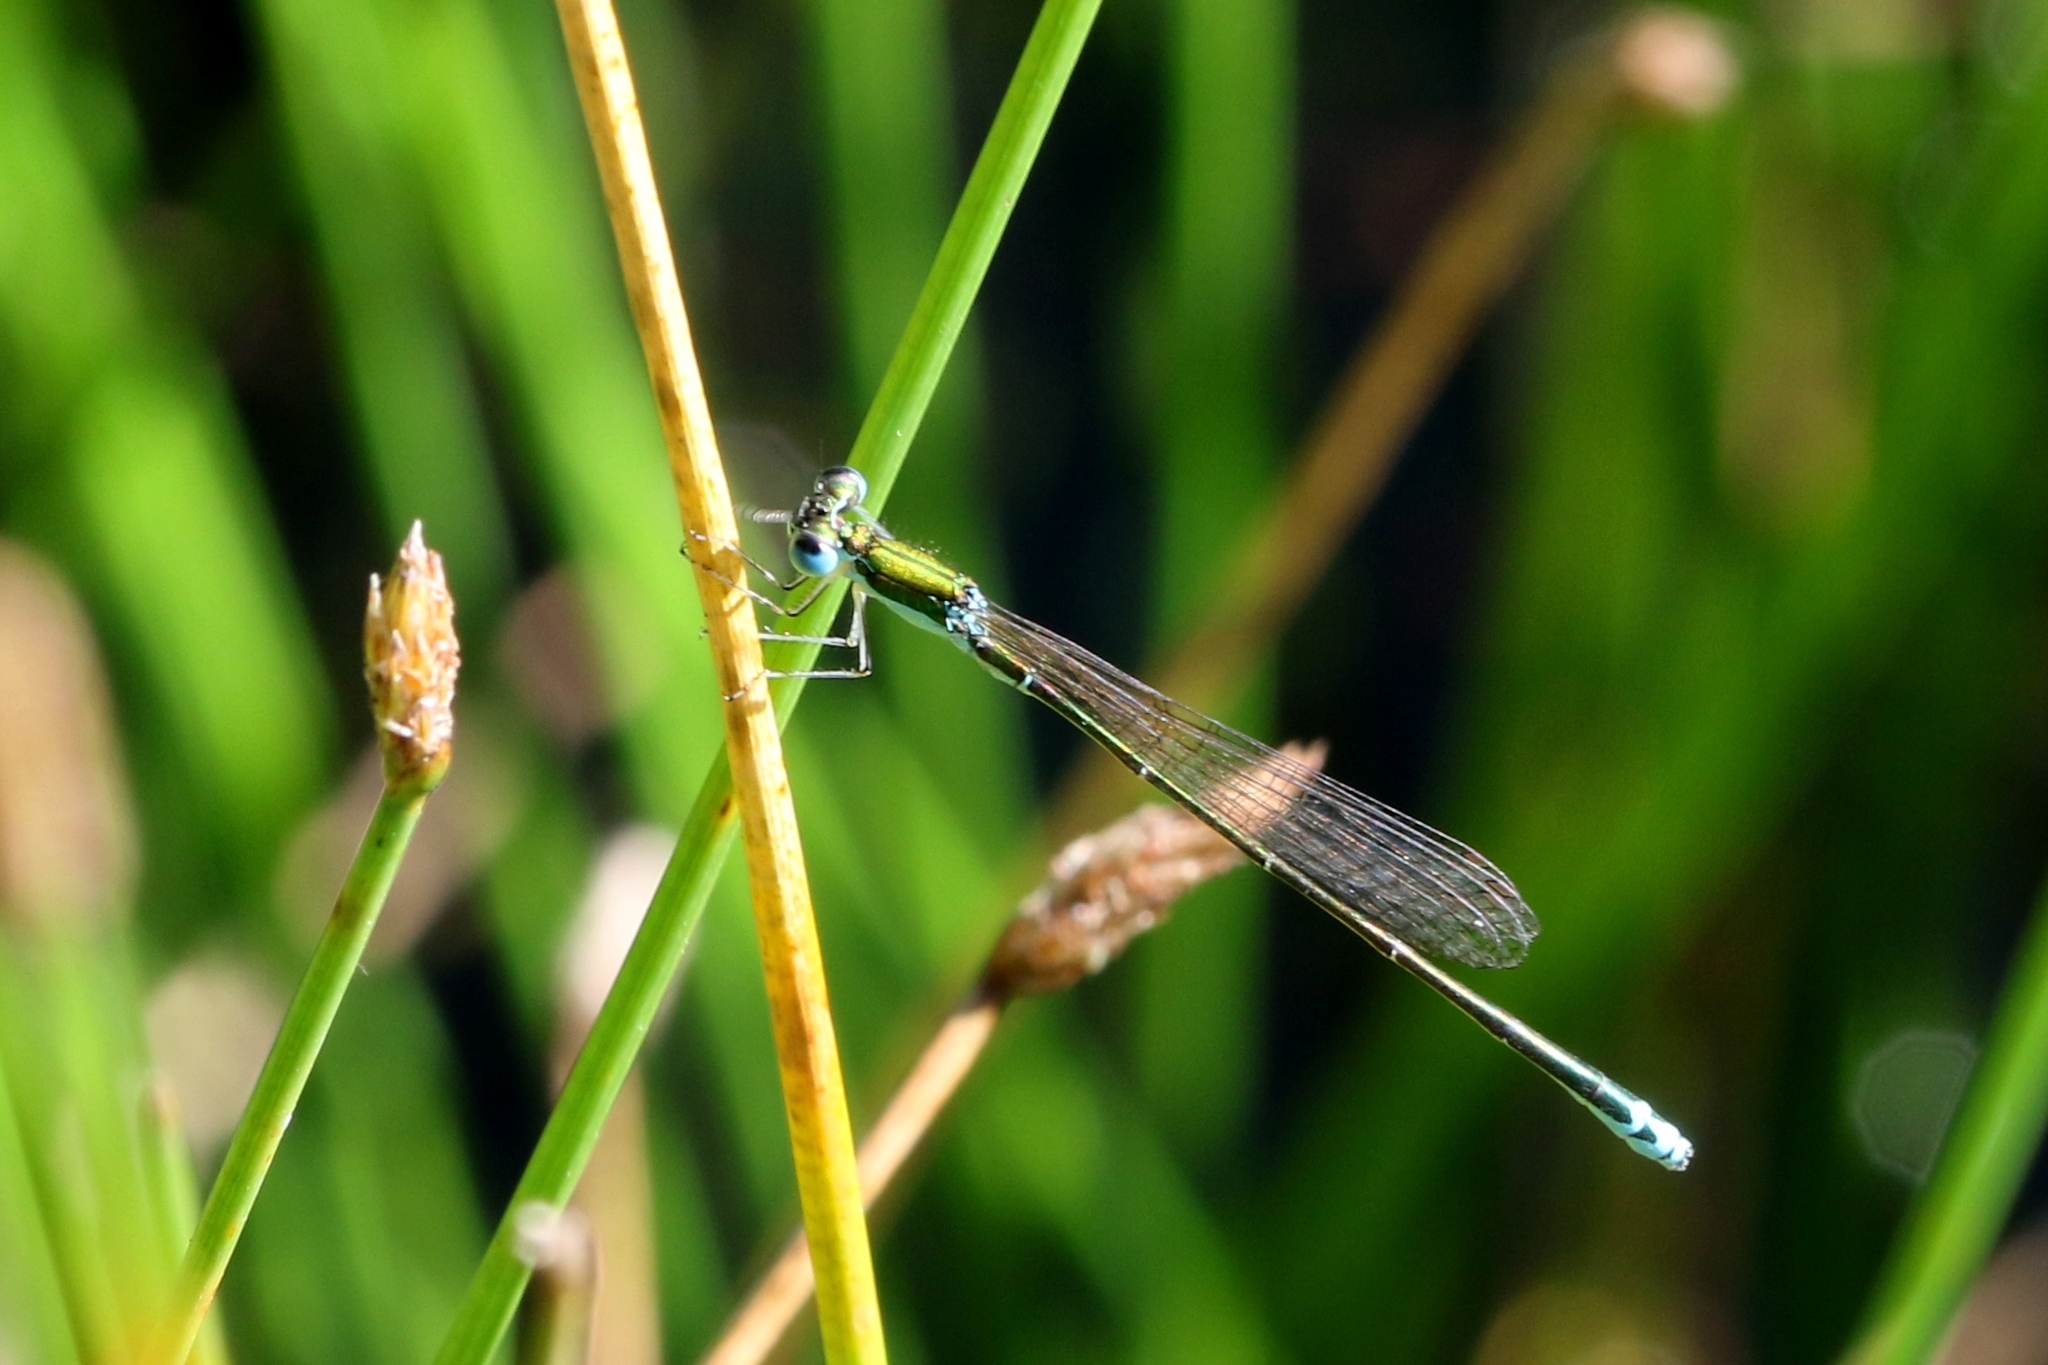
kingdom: Animalia
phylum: Arthropoda
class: Insecta
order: Odonata
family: Coenagrionidae
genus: Nehalennia
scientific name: Nehalennia irene
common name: Sedge sprite
